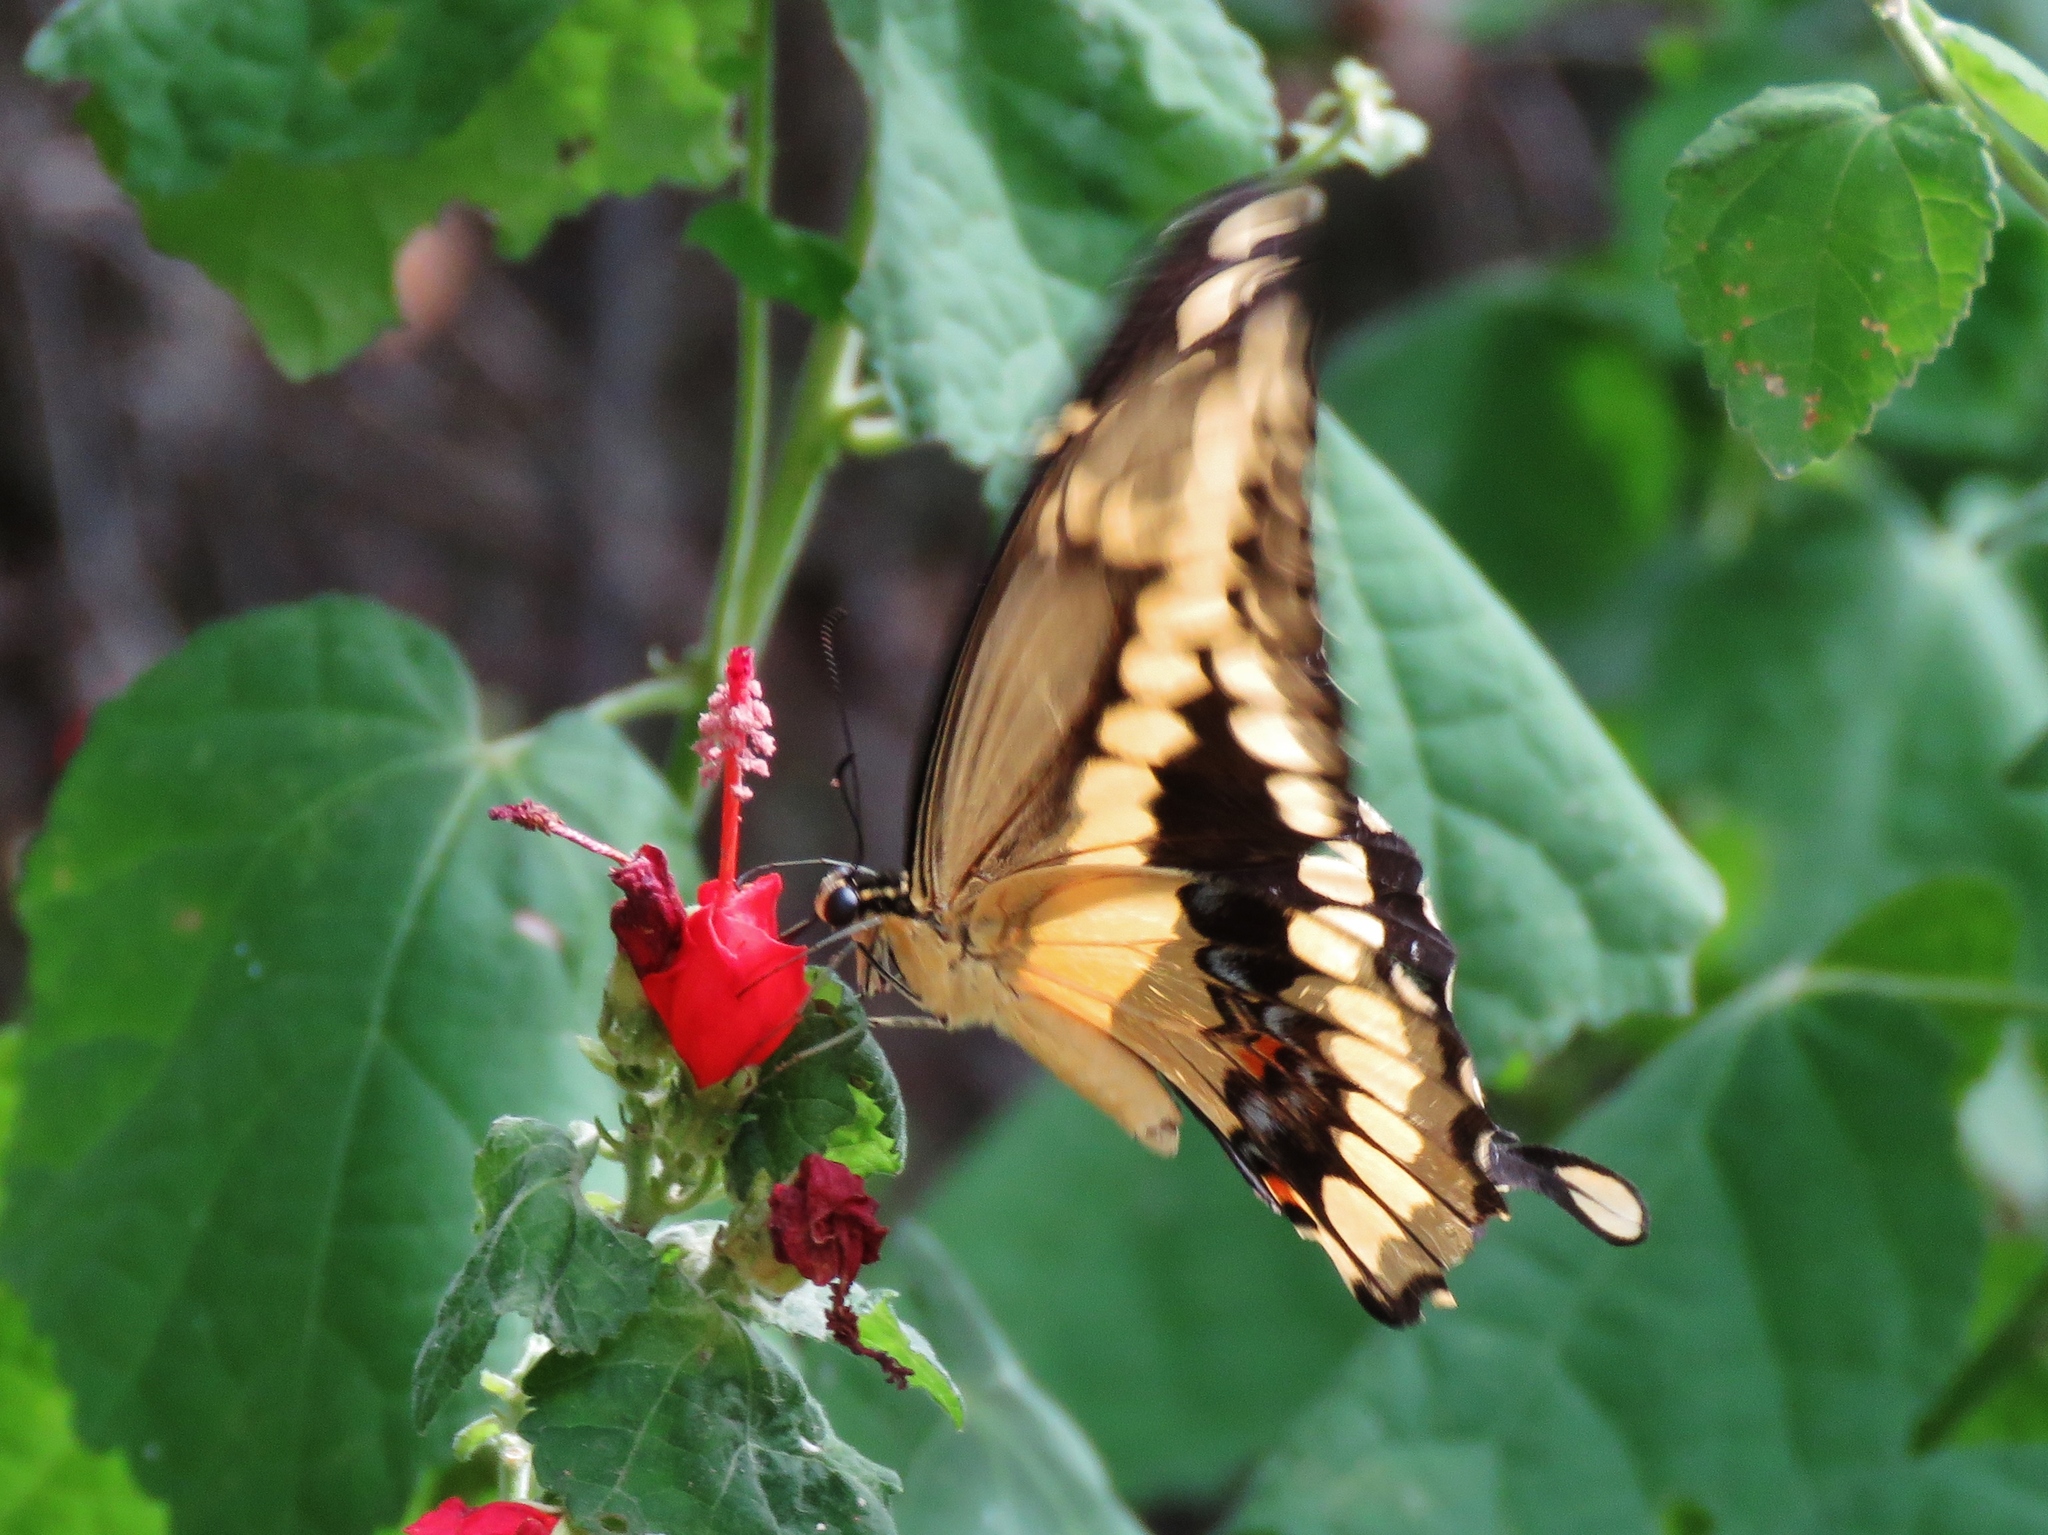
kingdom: Animalia
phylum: Arthropoda
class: Insecta
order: Lepidoptera
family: Papilionidae
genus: Papilio
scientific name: Papilio cresphontes
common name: Giant swallowtail
